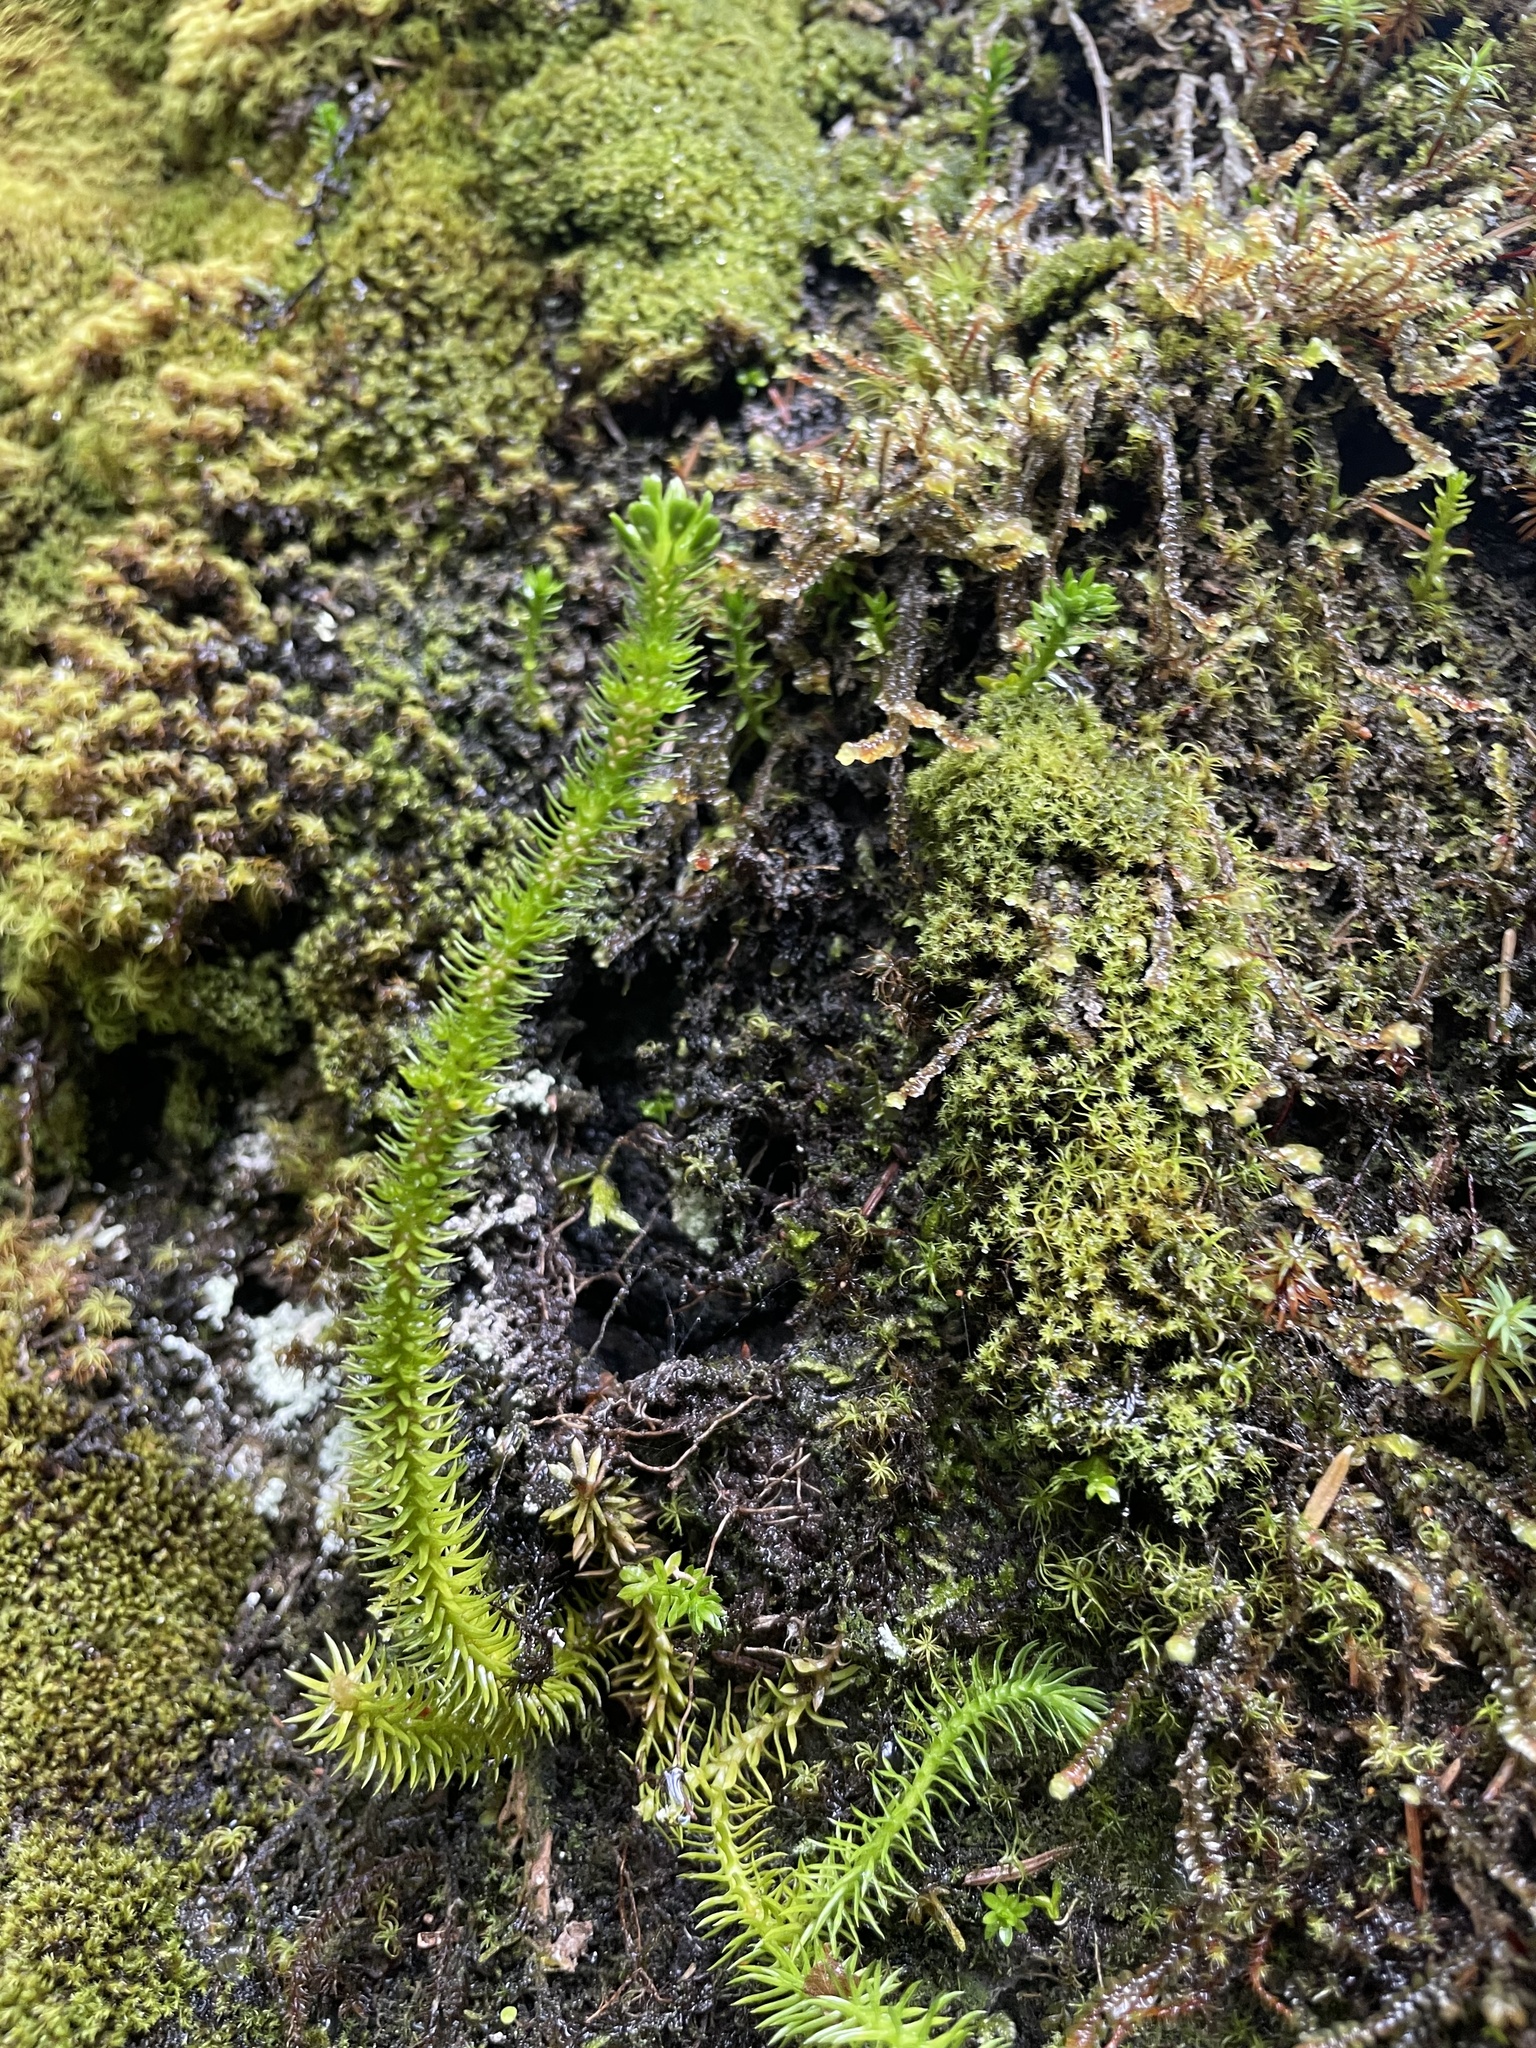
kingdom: Plantae
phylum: Tracheophyta
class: Lycopodiopsida
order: Lycopodiales
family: Lycopodiaceae
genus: Huperzia
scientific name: Huperzia miyoshiana
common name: Chinese clubmoss
